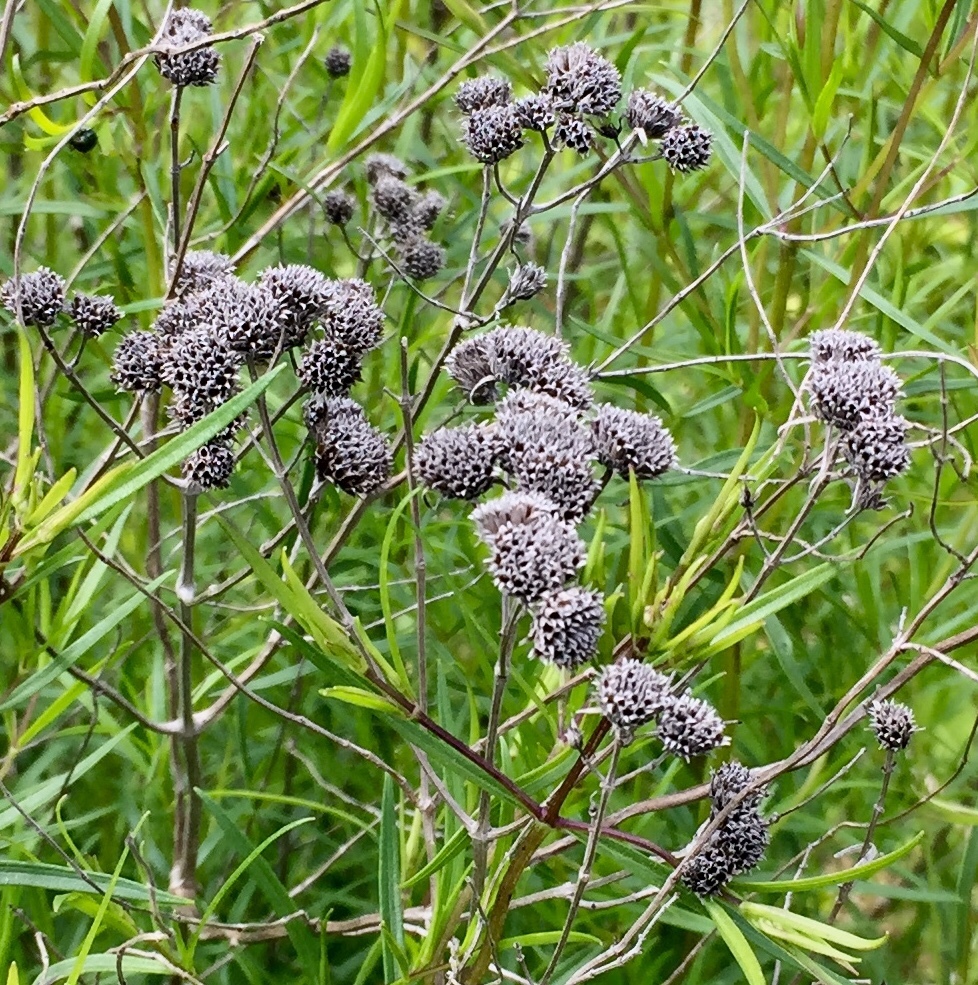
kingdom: Plantae
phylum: Tracheophyta
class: Magnoliopsida
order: Lamiales
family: Lamiaceae
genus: Pycnanthemum
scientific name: Pycnanthemum tenuifolium
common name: Narrow-leaf mountain-mint
